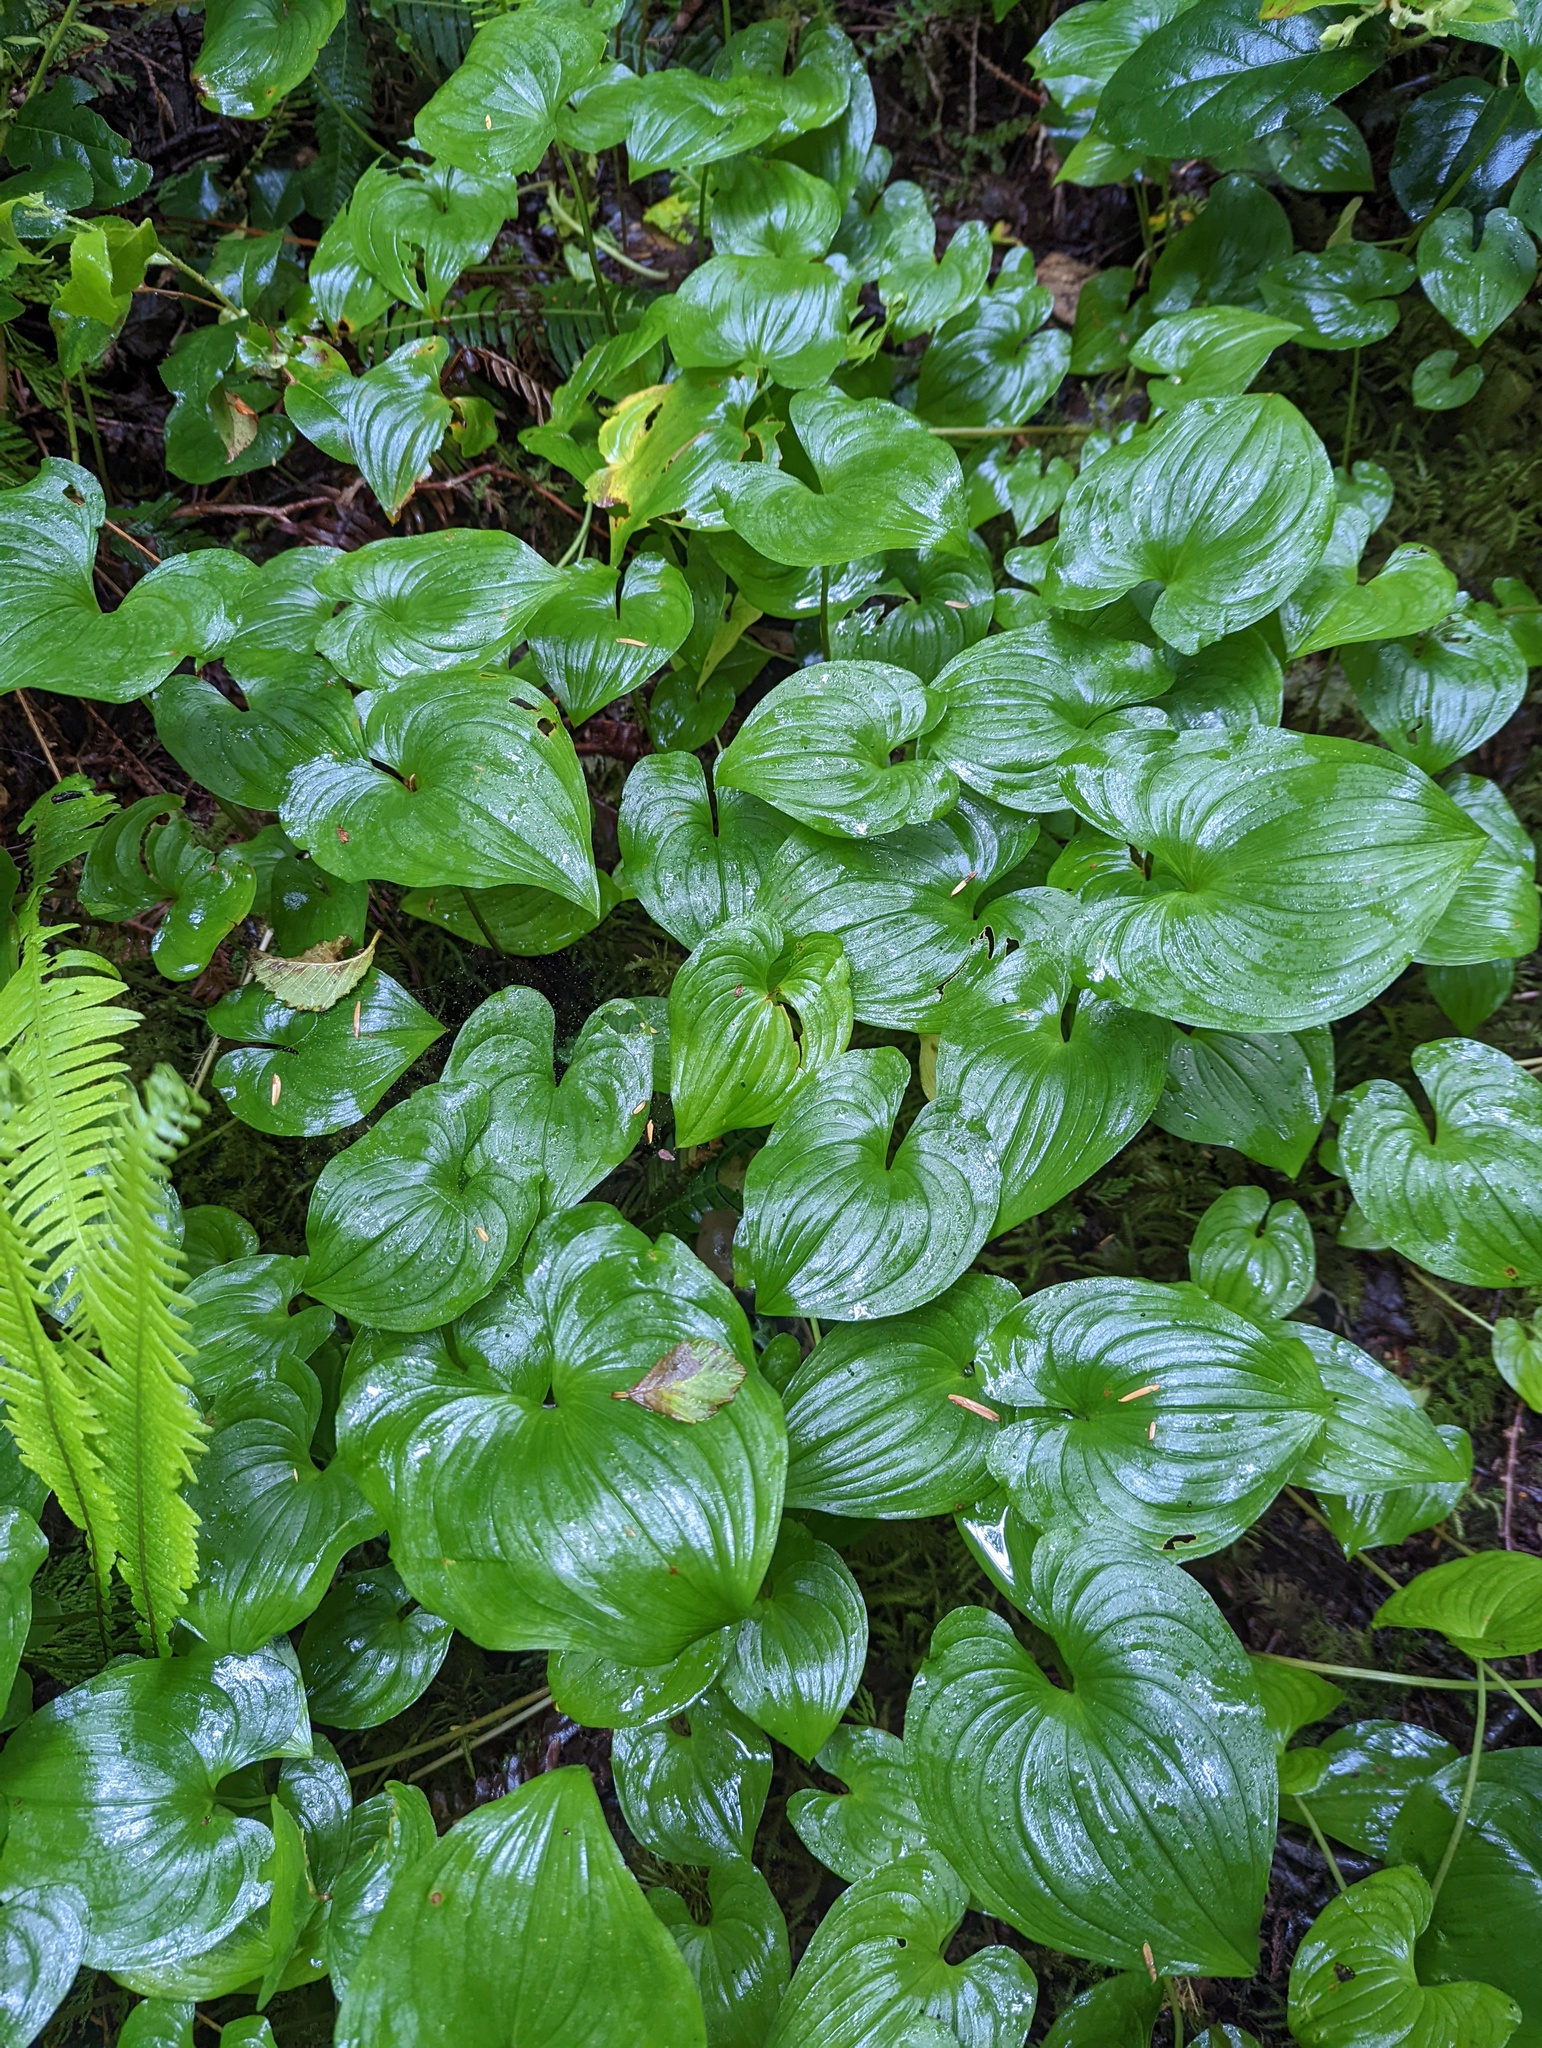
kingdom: Plantae
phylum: Tracheophyta
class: Liliopsida
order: Asparagales
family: Asparagaceae
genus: Maianthemum
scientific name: Maianthemum dilatatum
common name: False lily-of-the-valley
